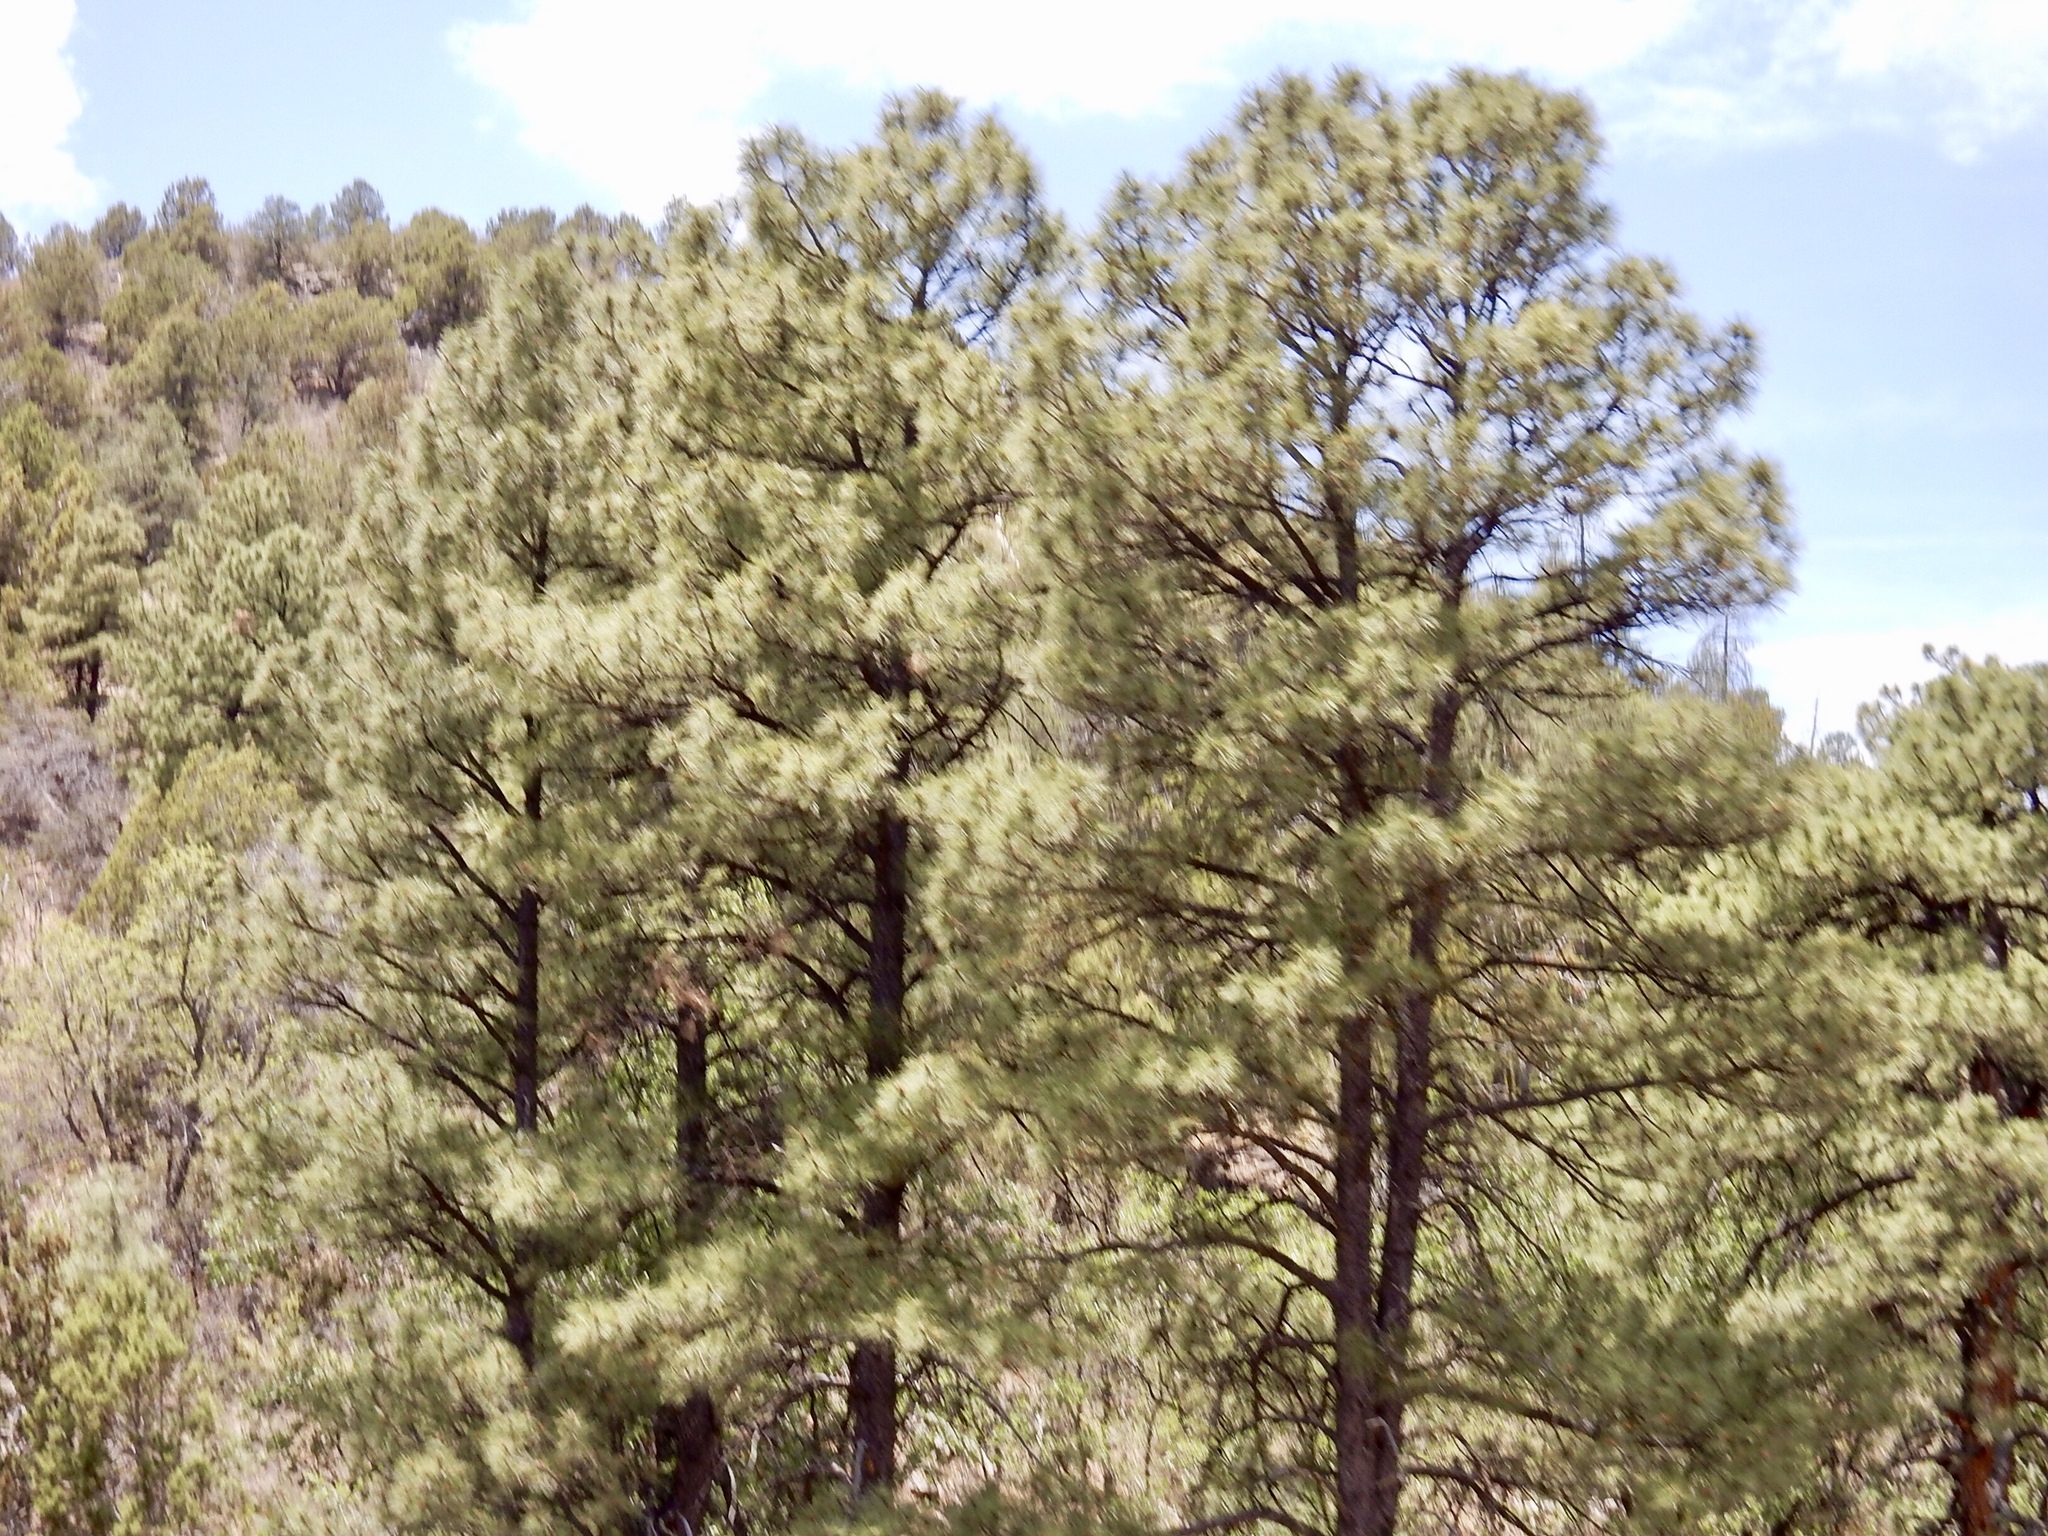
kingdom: Plantae
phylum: Tracheophyta
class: Pinopsida
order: Pinales
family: Pinaceae
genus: Pinus
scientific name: Pinus ponderosa
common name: Western yellow-pine
